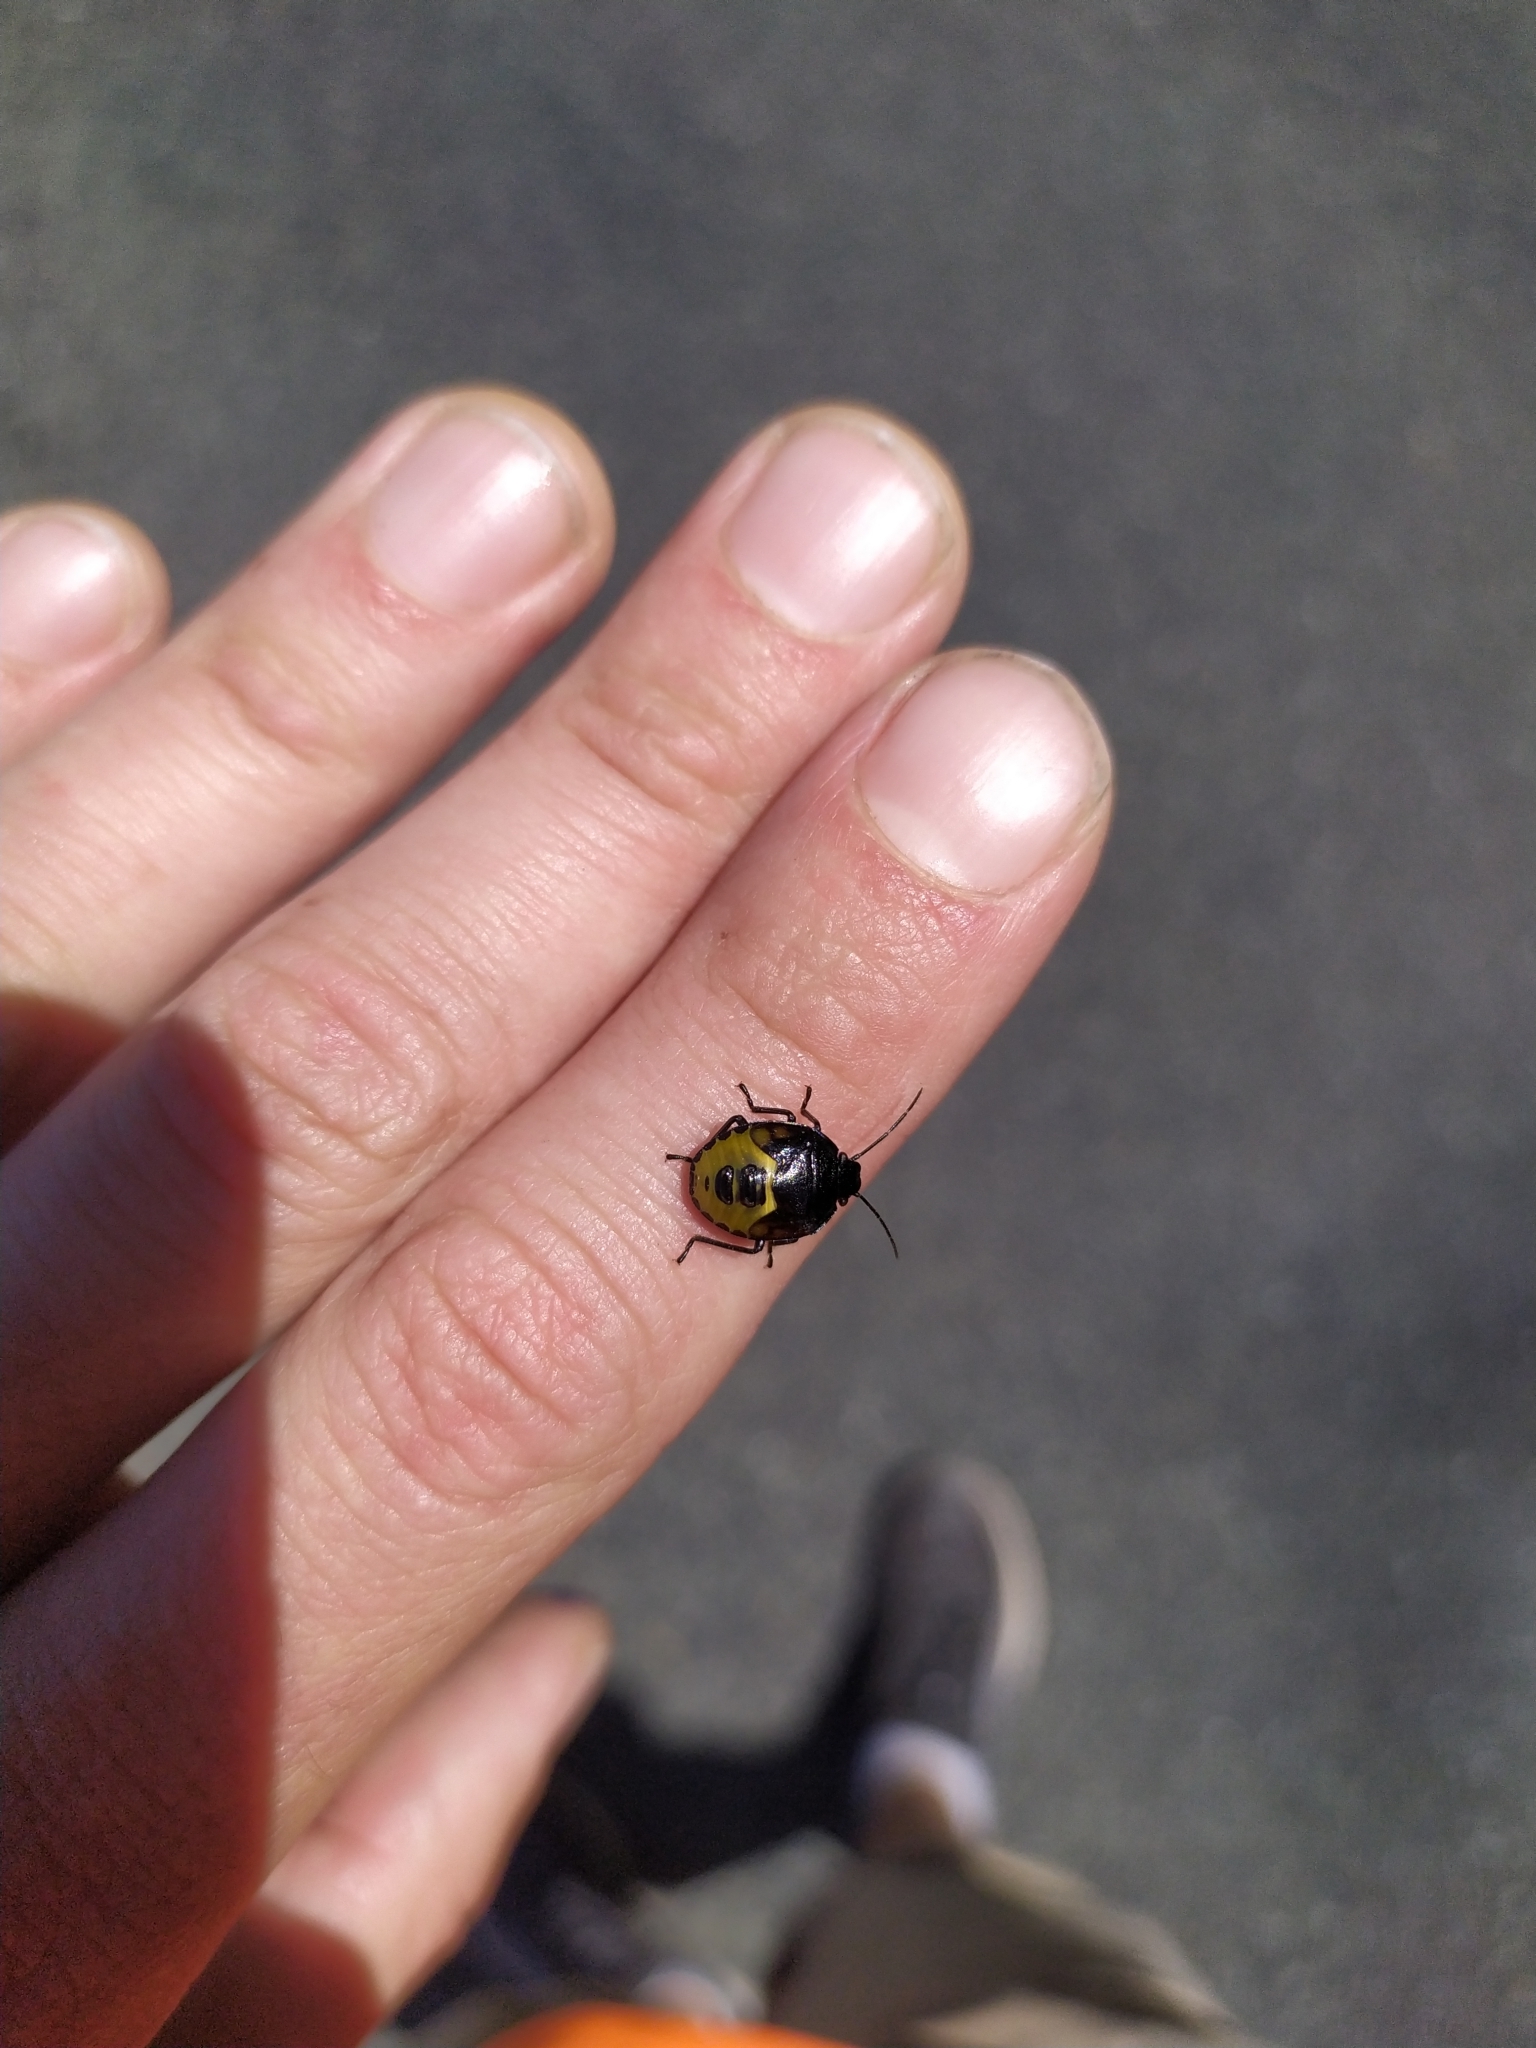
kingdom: Animalia
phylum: Arthropoda
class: Insecta
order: Hemiptera
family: Pentatomidae
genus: Glaucias
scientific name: Glaucias amyota
